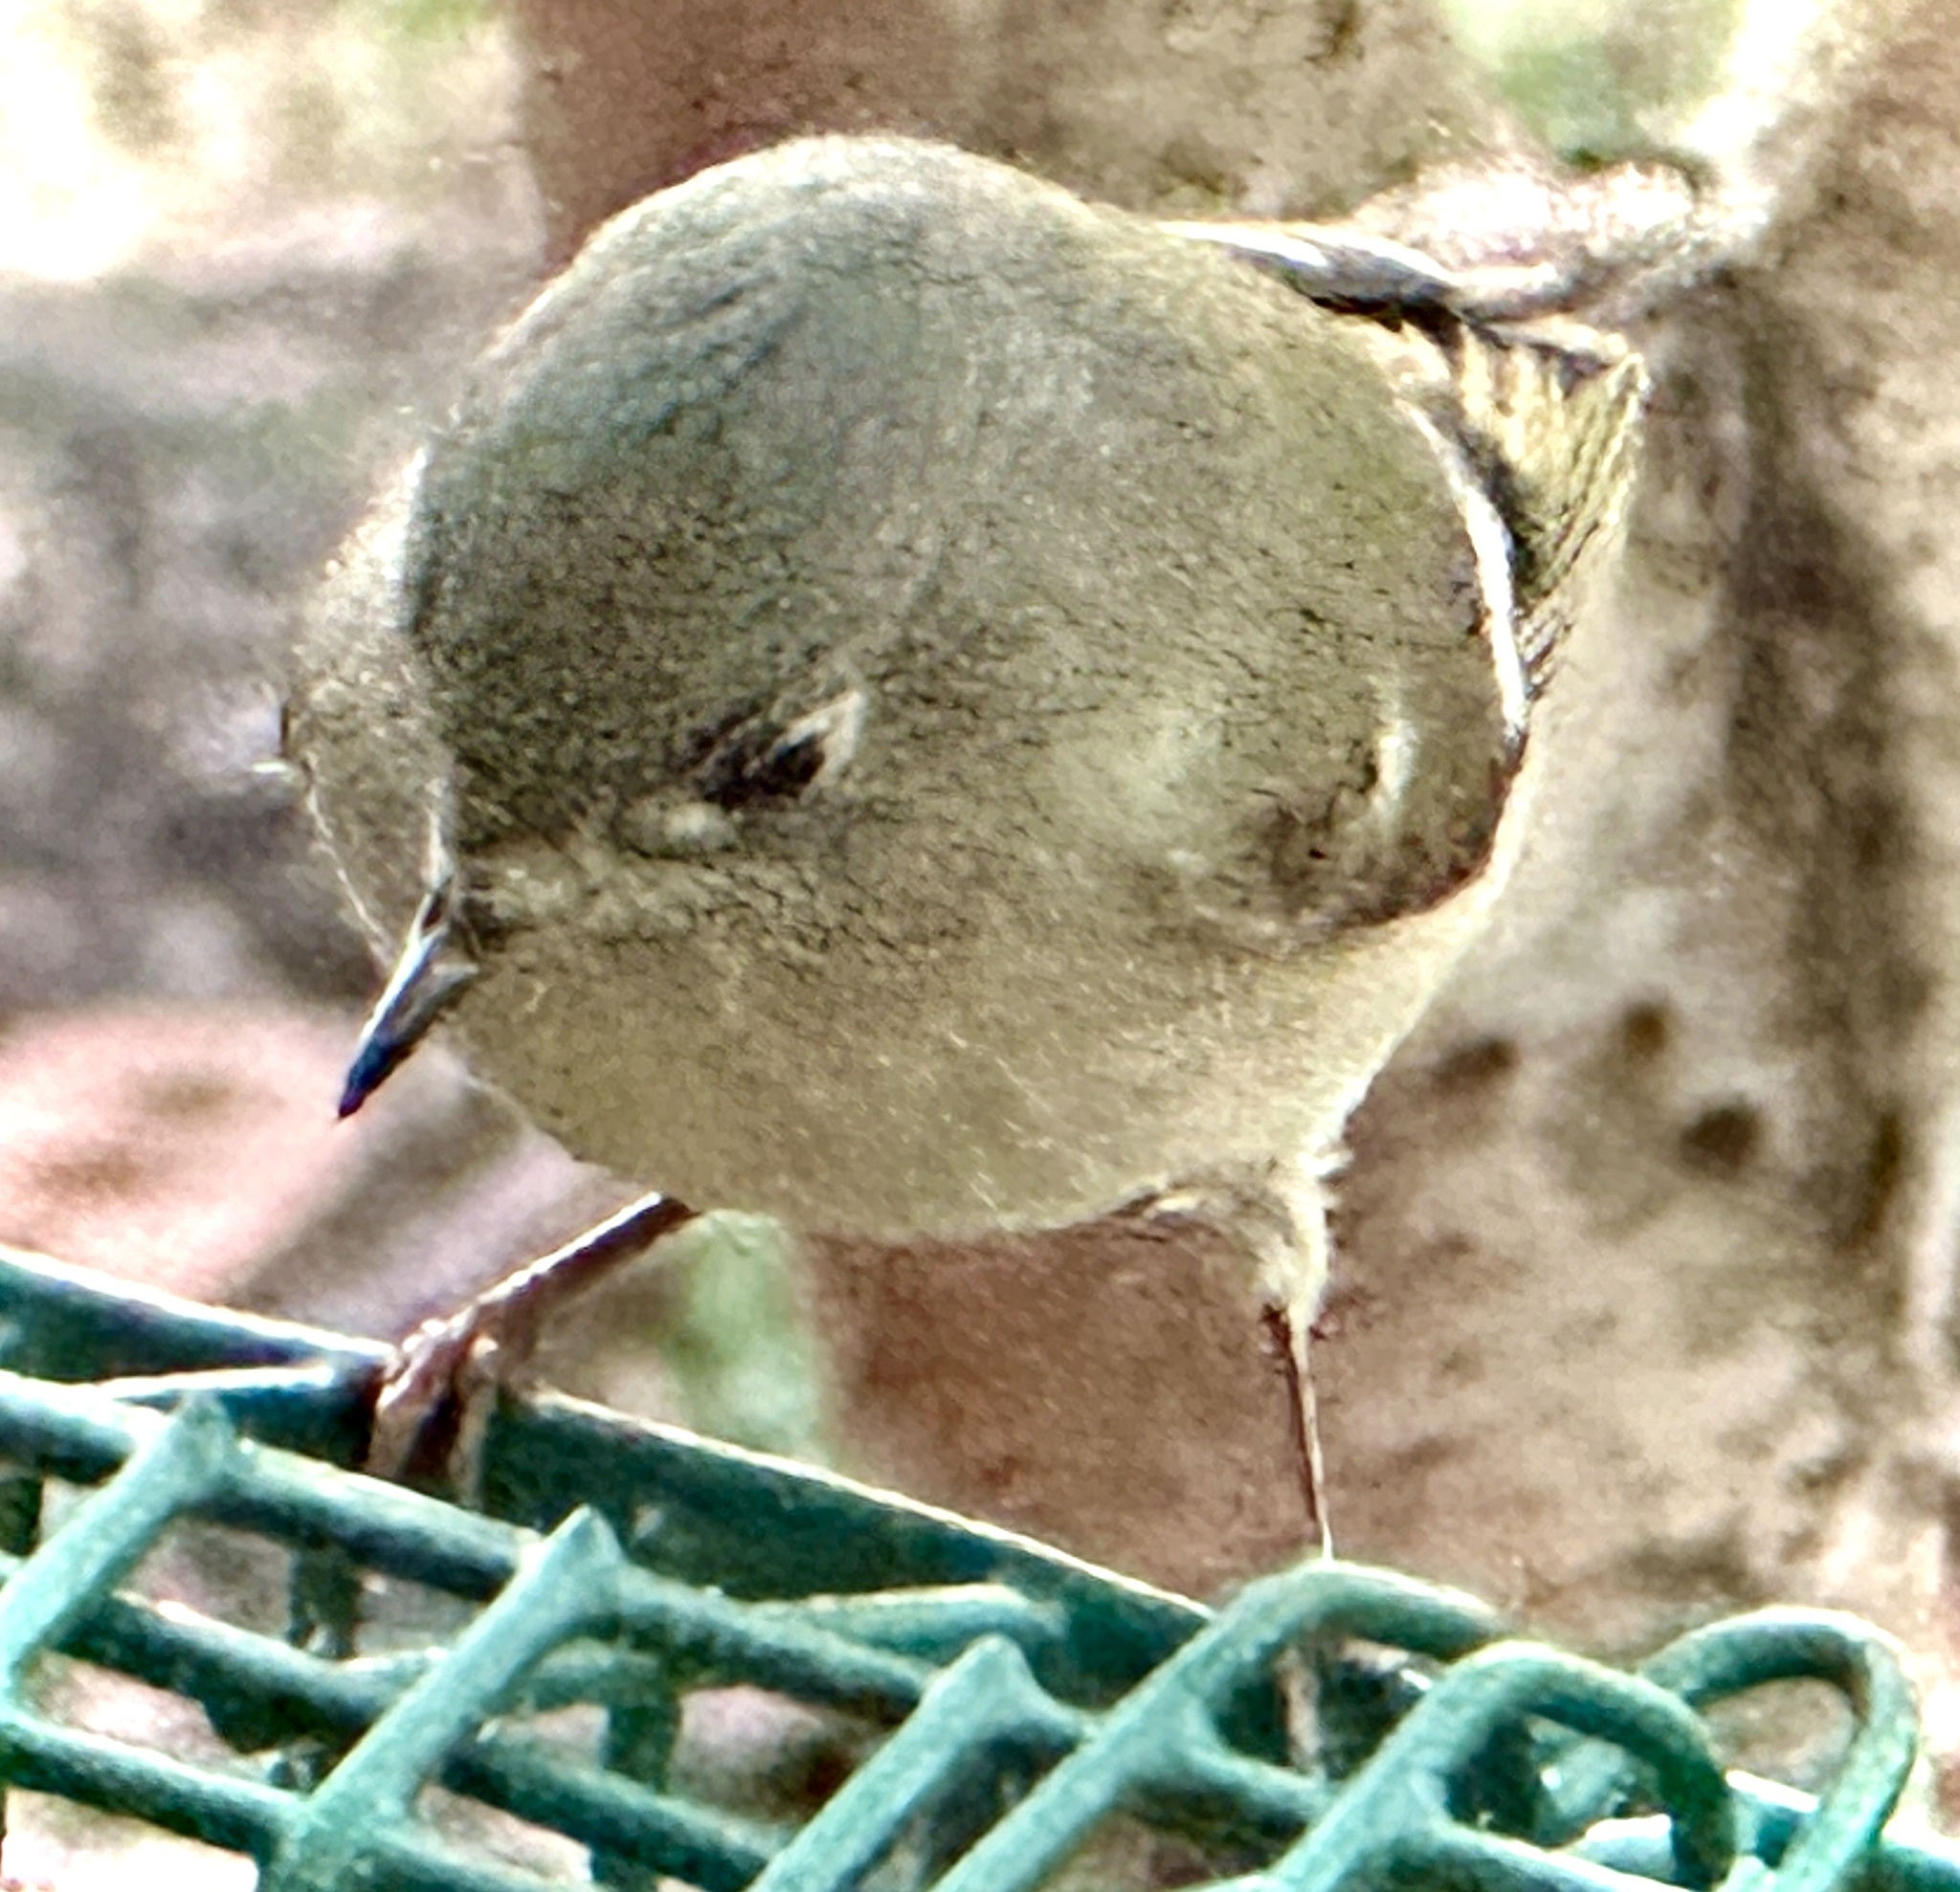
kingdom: Animalia
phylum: Chordata
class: Aves
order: Passeriformes
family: Regulidae
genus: Regulus
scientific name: Regulus calendula
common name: Ruby-crowned kinglet
